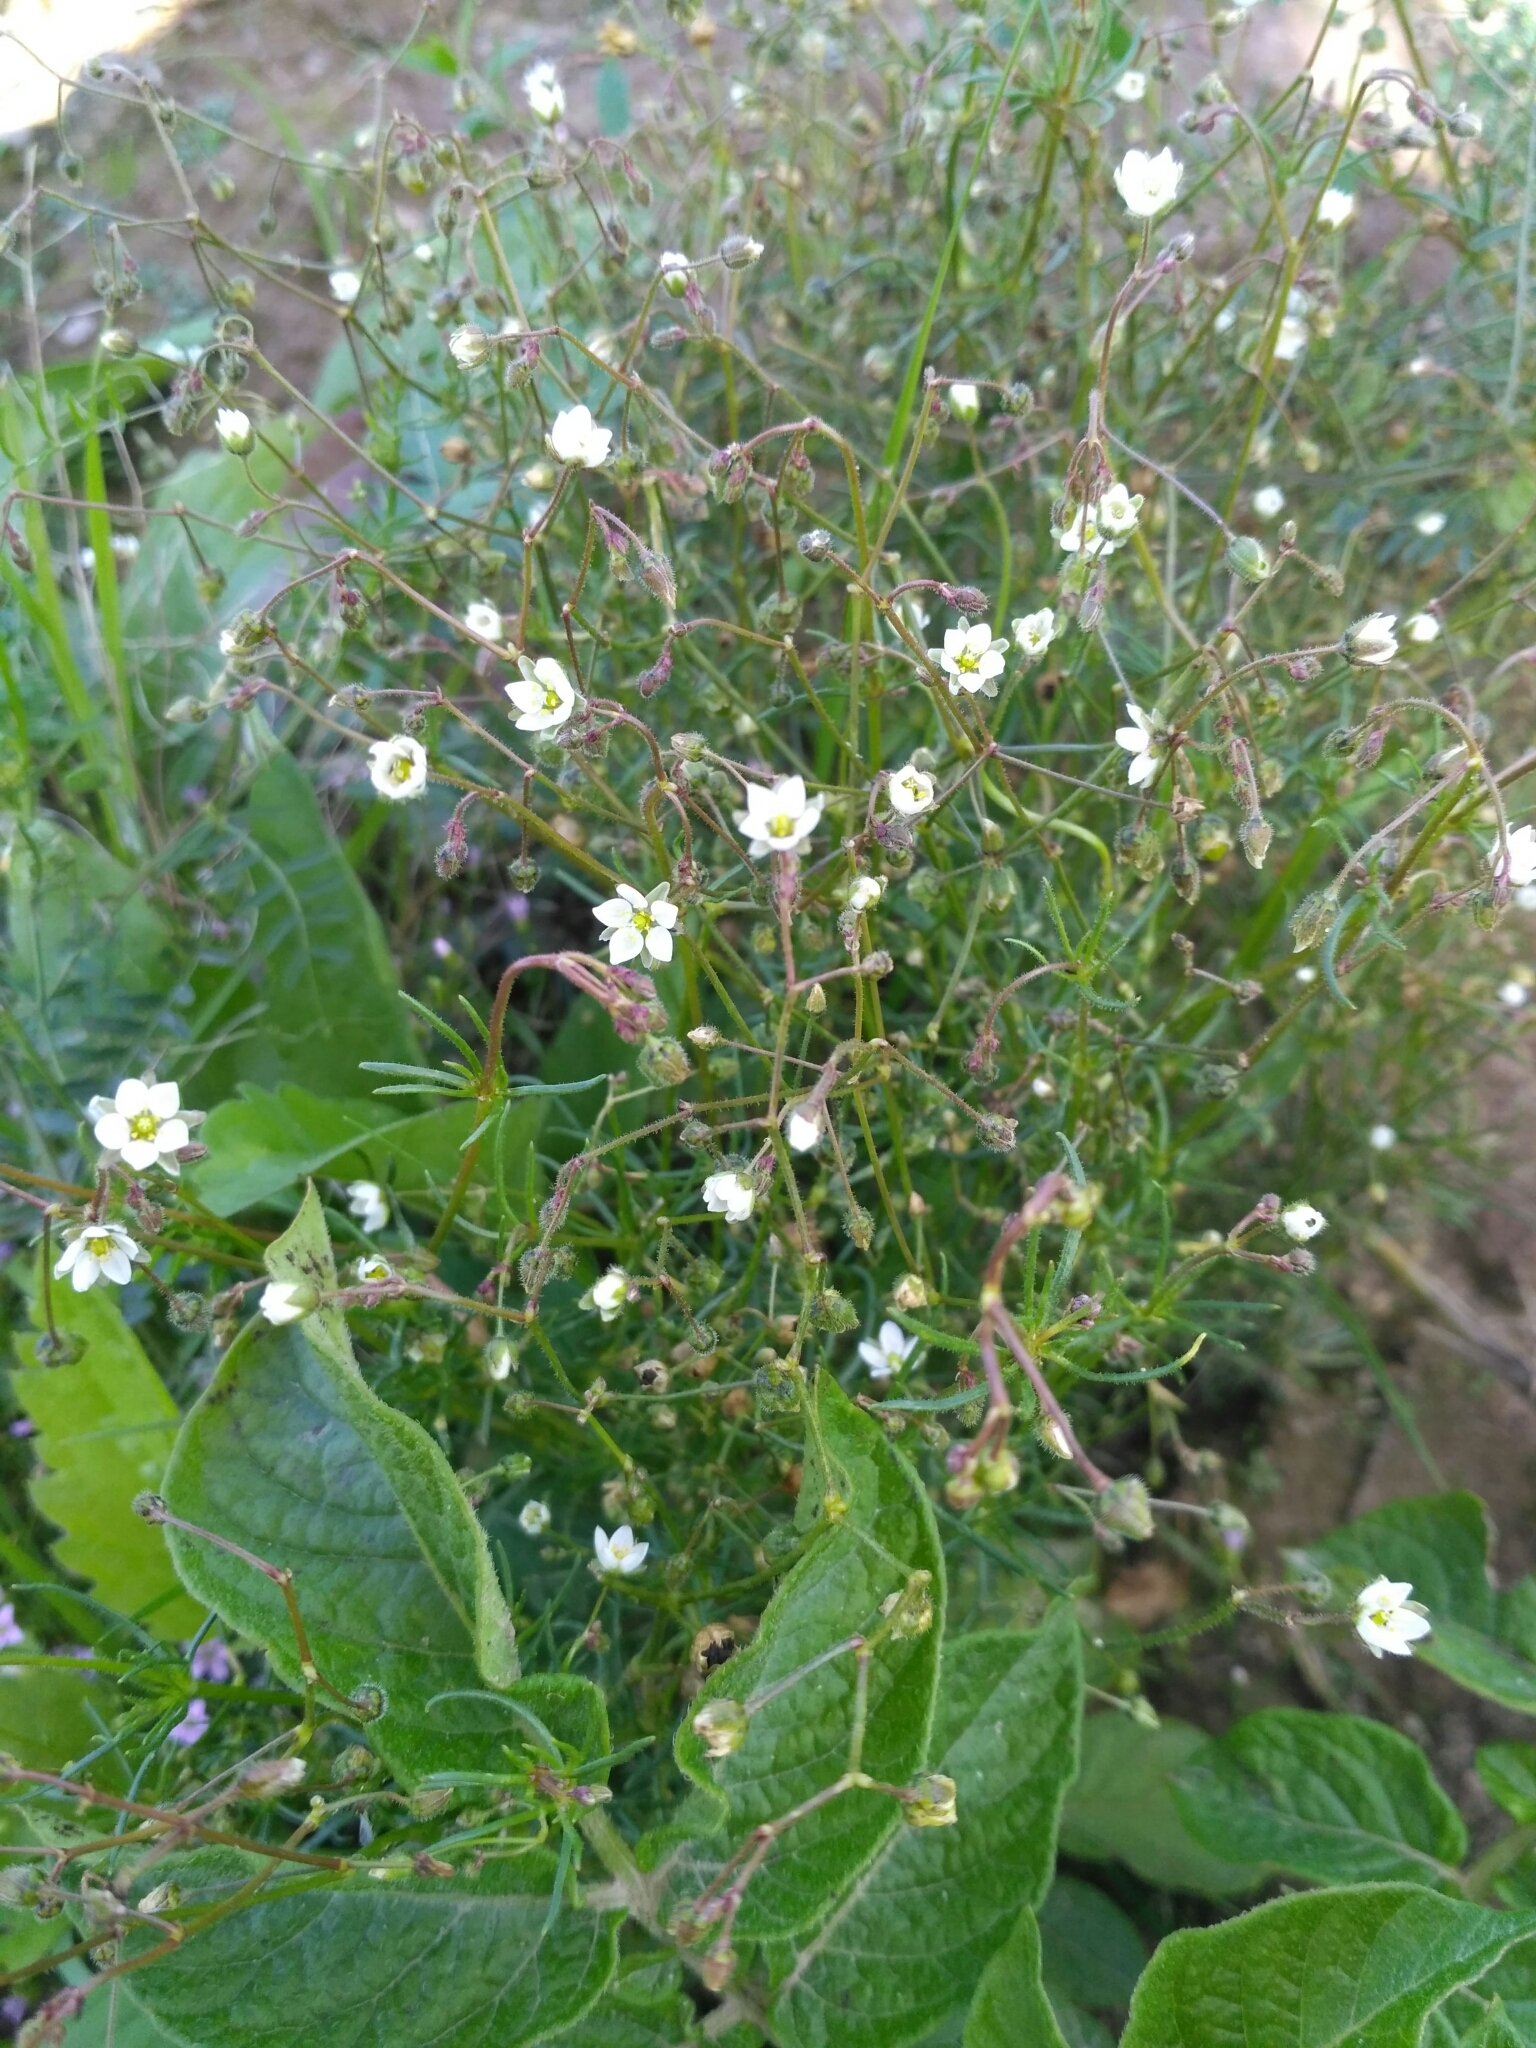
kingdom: Plantae
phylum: Tracheophyta
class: Magnoliopsida
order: Caryophyllales
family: Caryophyllaceae
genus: Spergula
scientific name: Spergula arvensis
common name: Corn spurrey
